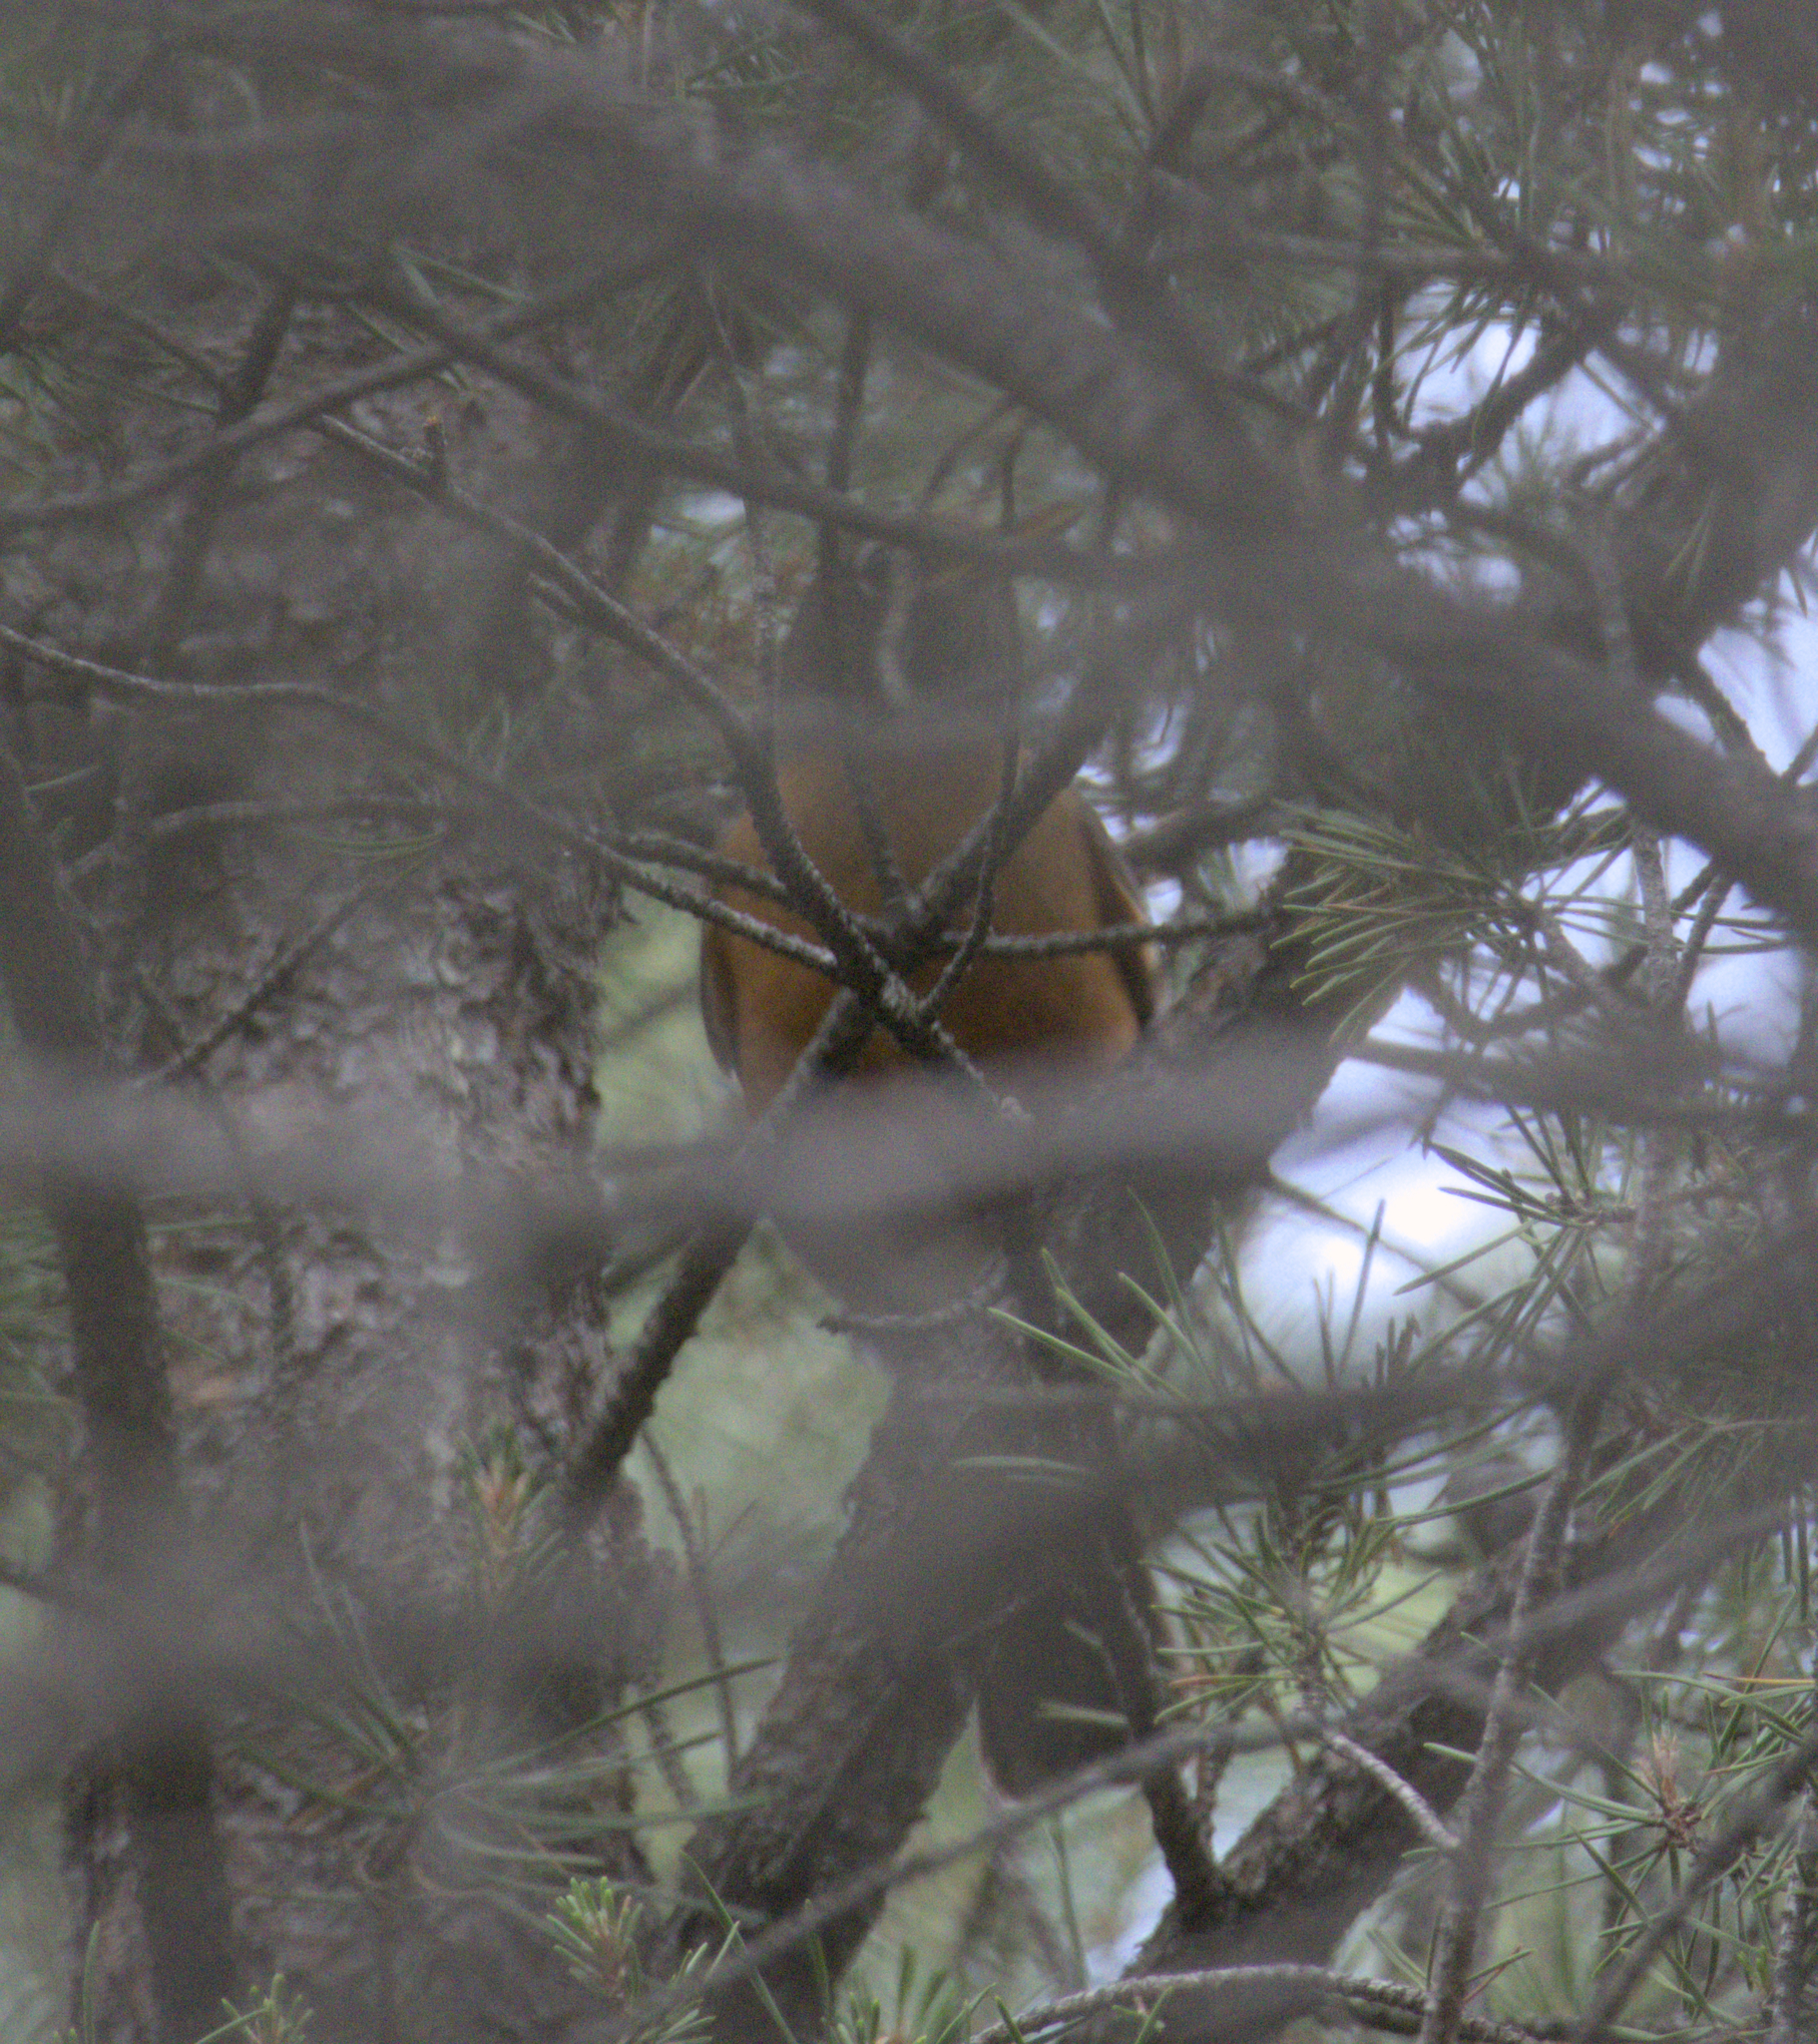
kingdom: Animalia
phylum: Chordata
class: Aves
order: Passeriformes
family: Turdidae
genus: Turdus
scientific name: Turdus migratorius
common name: American robin
